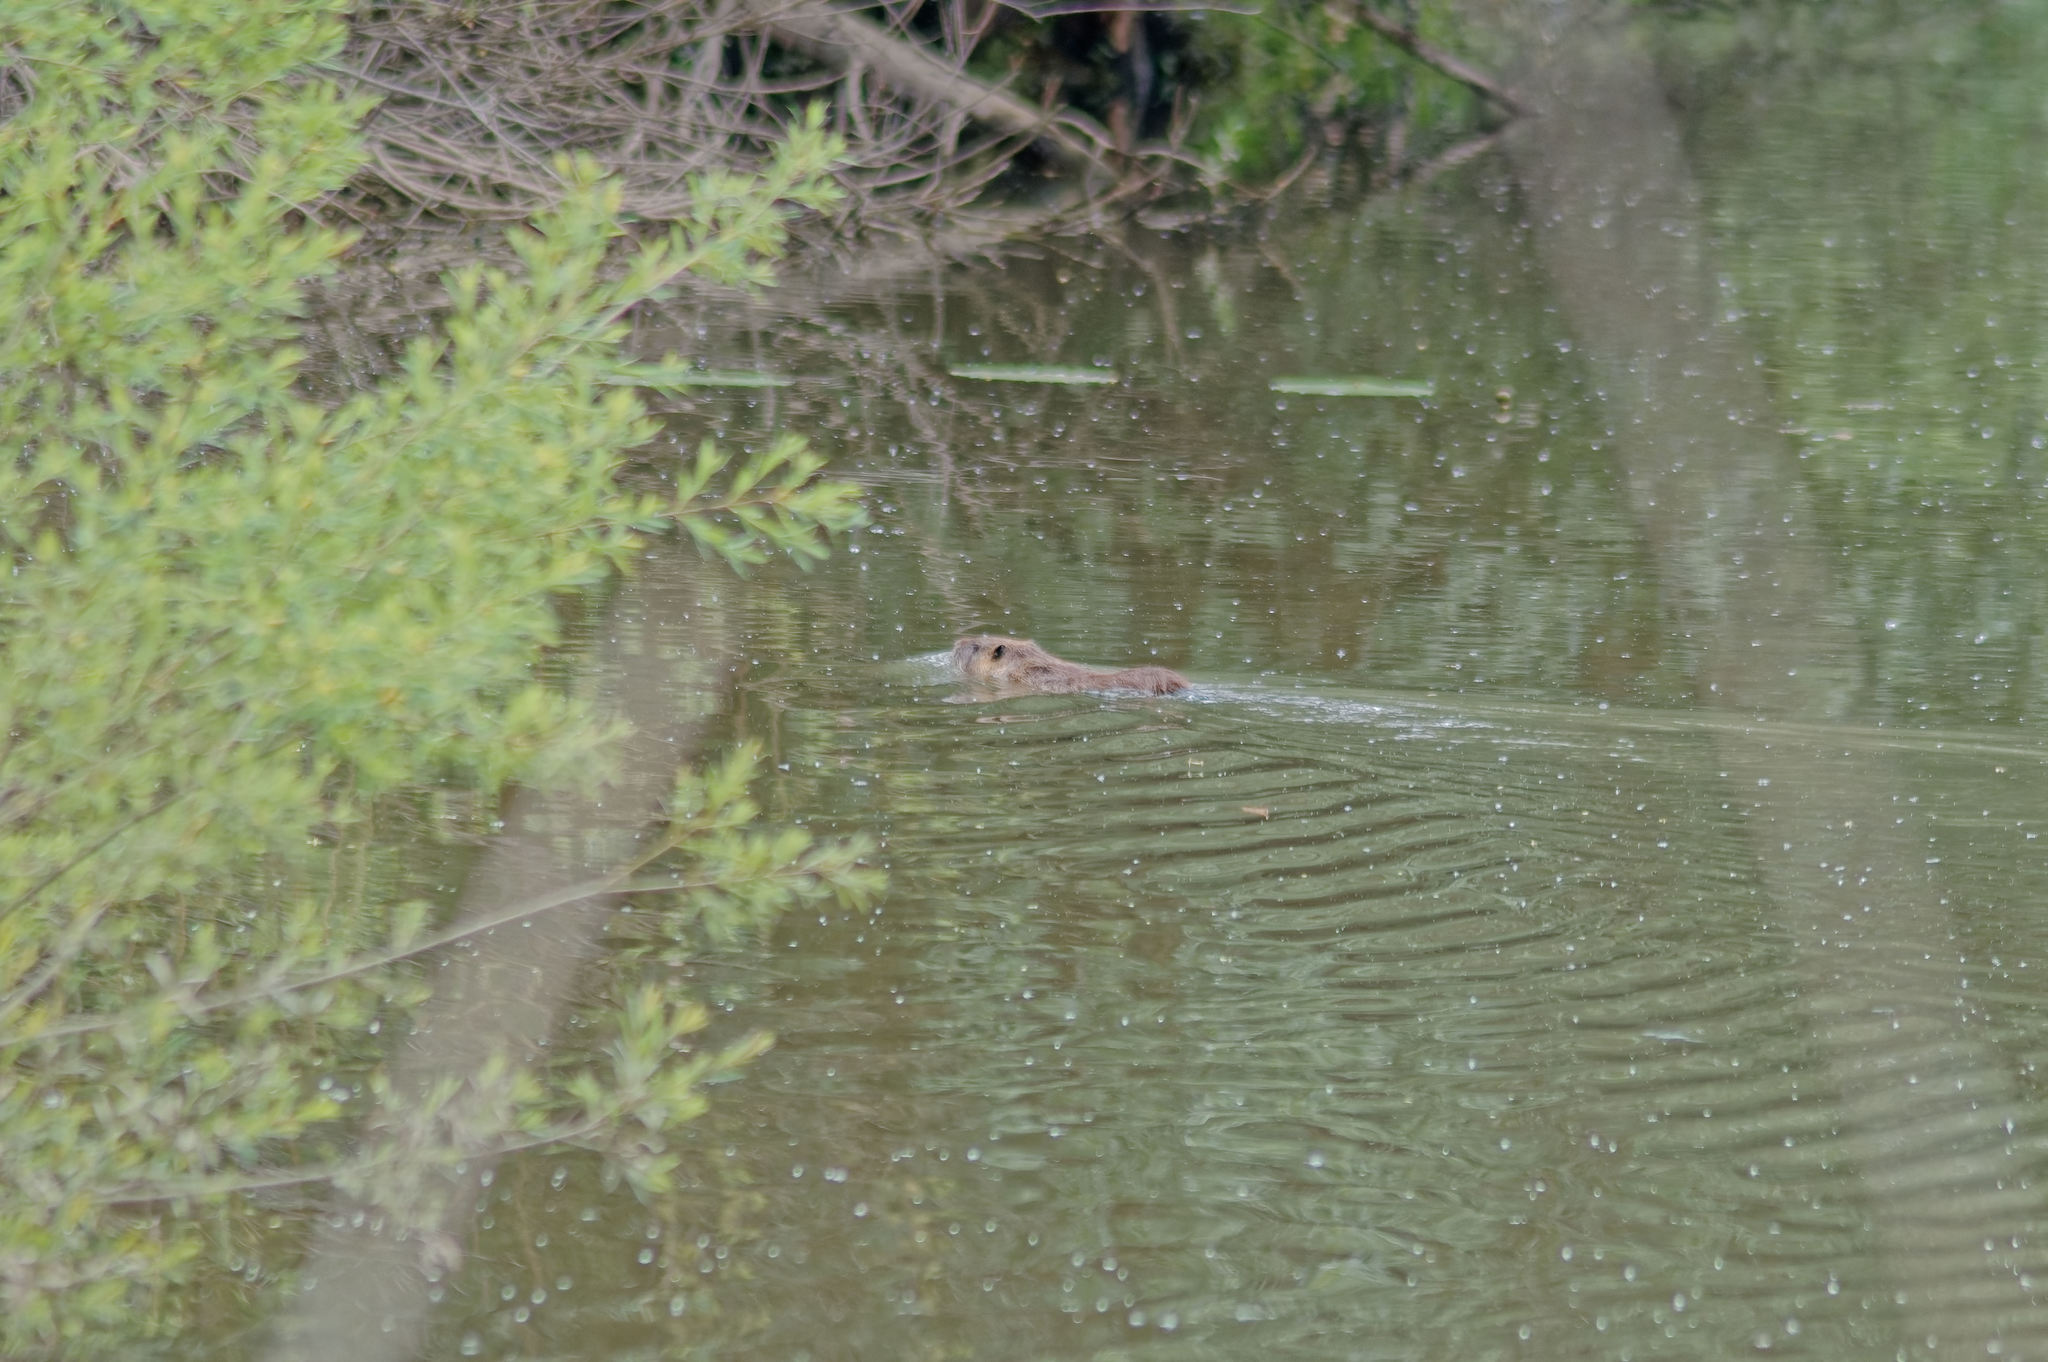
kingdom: Animalia
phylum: Chordata
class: Mammalia
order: Rodentia
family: Myocastoridae
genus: Myocastor
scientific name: Myocastor coypus
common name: Coypu
